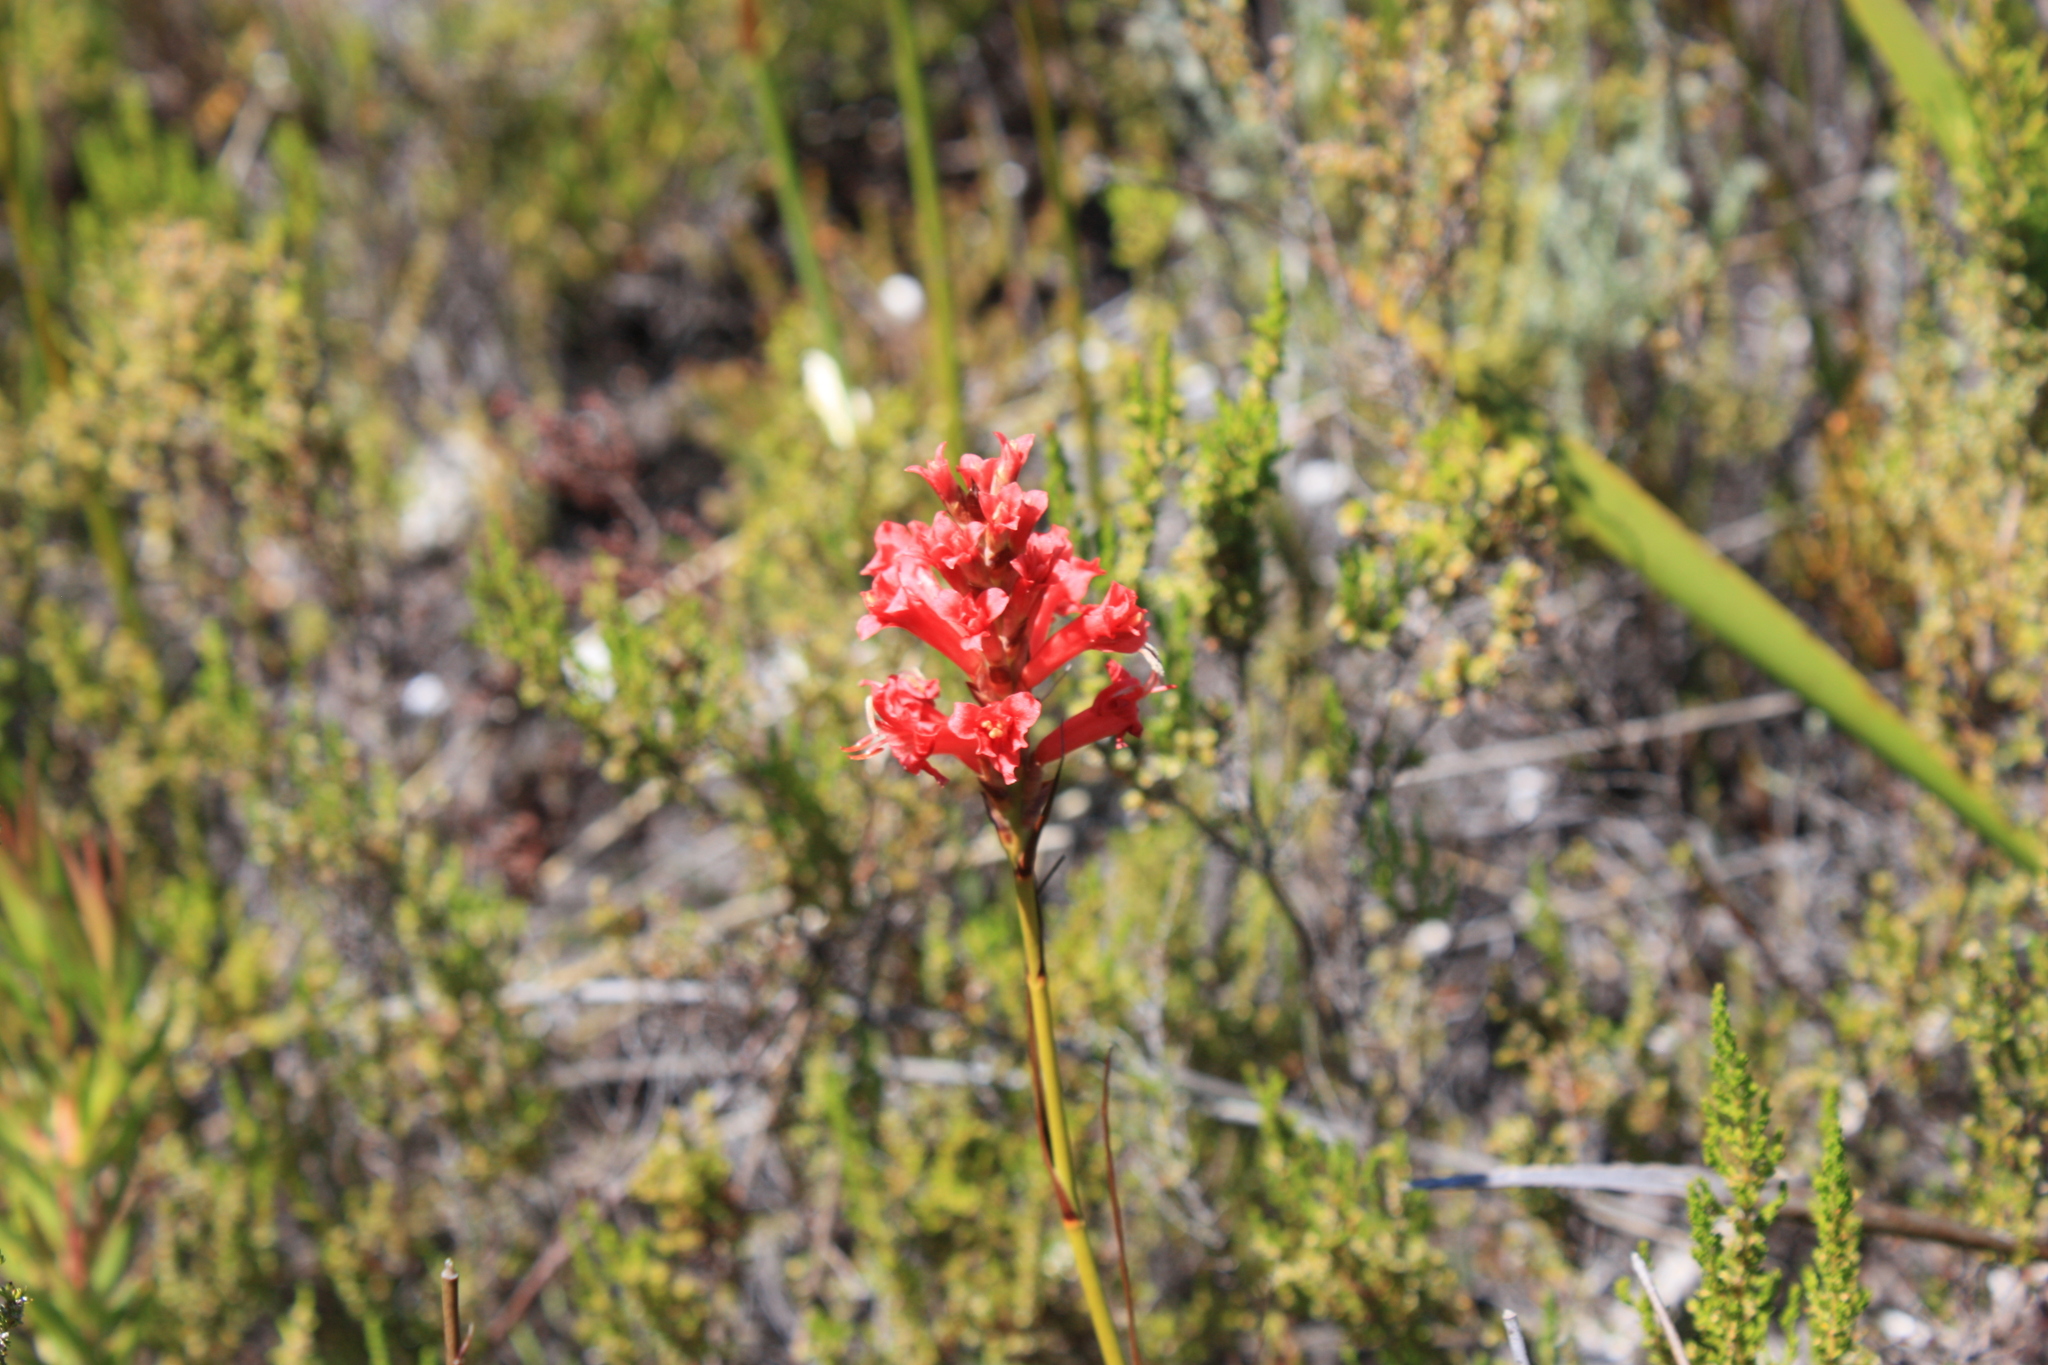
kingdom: Plantae
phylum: Tracheophyta
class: Liliopsida
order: Asparagales
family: Iridaceae
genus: Tritoniopsis
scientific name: Tritoniopsis triticea
